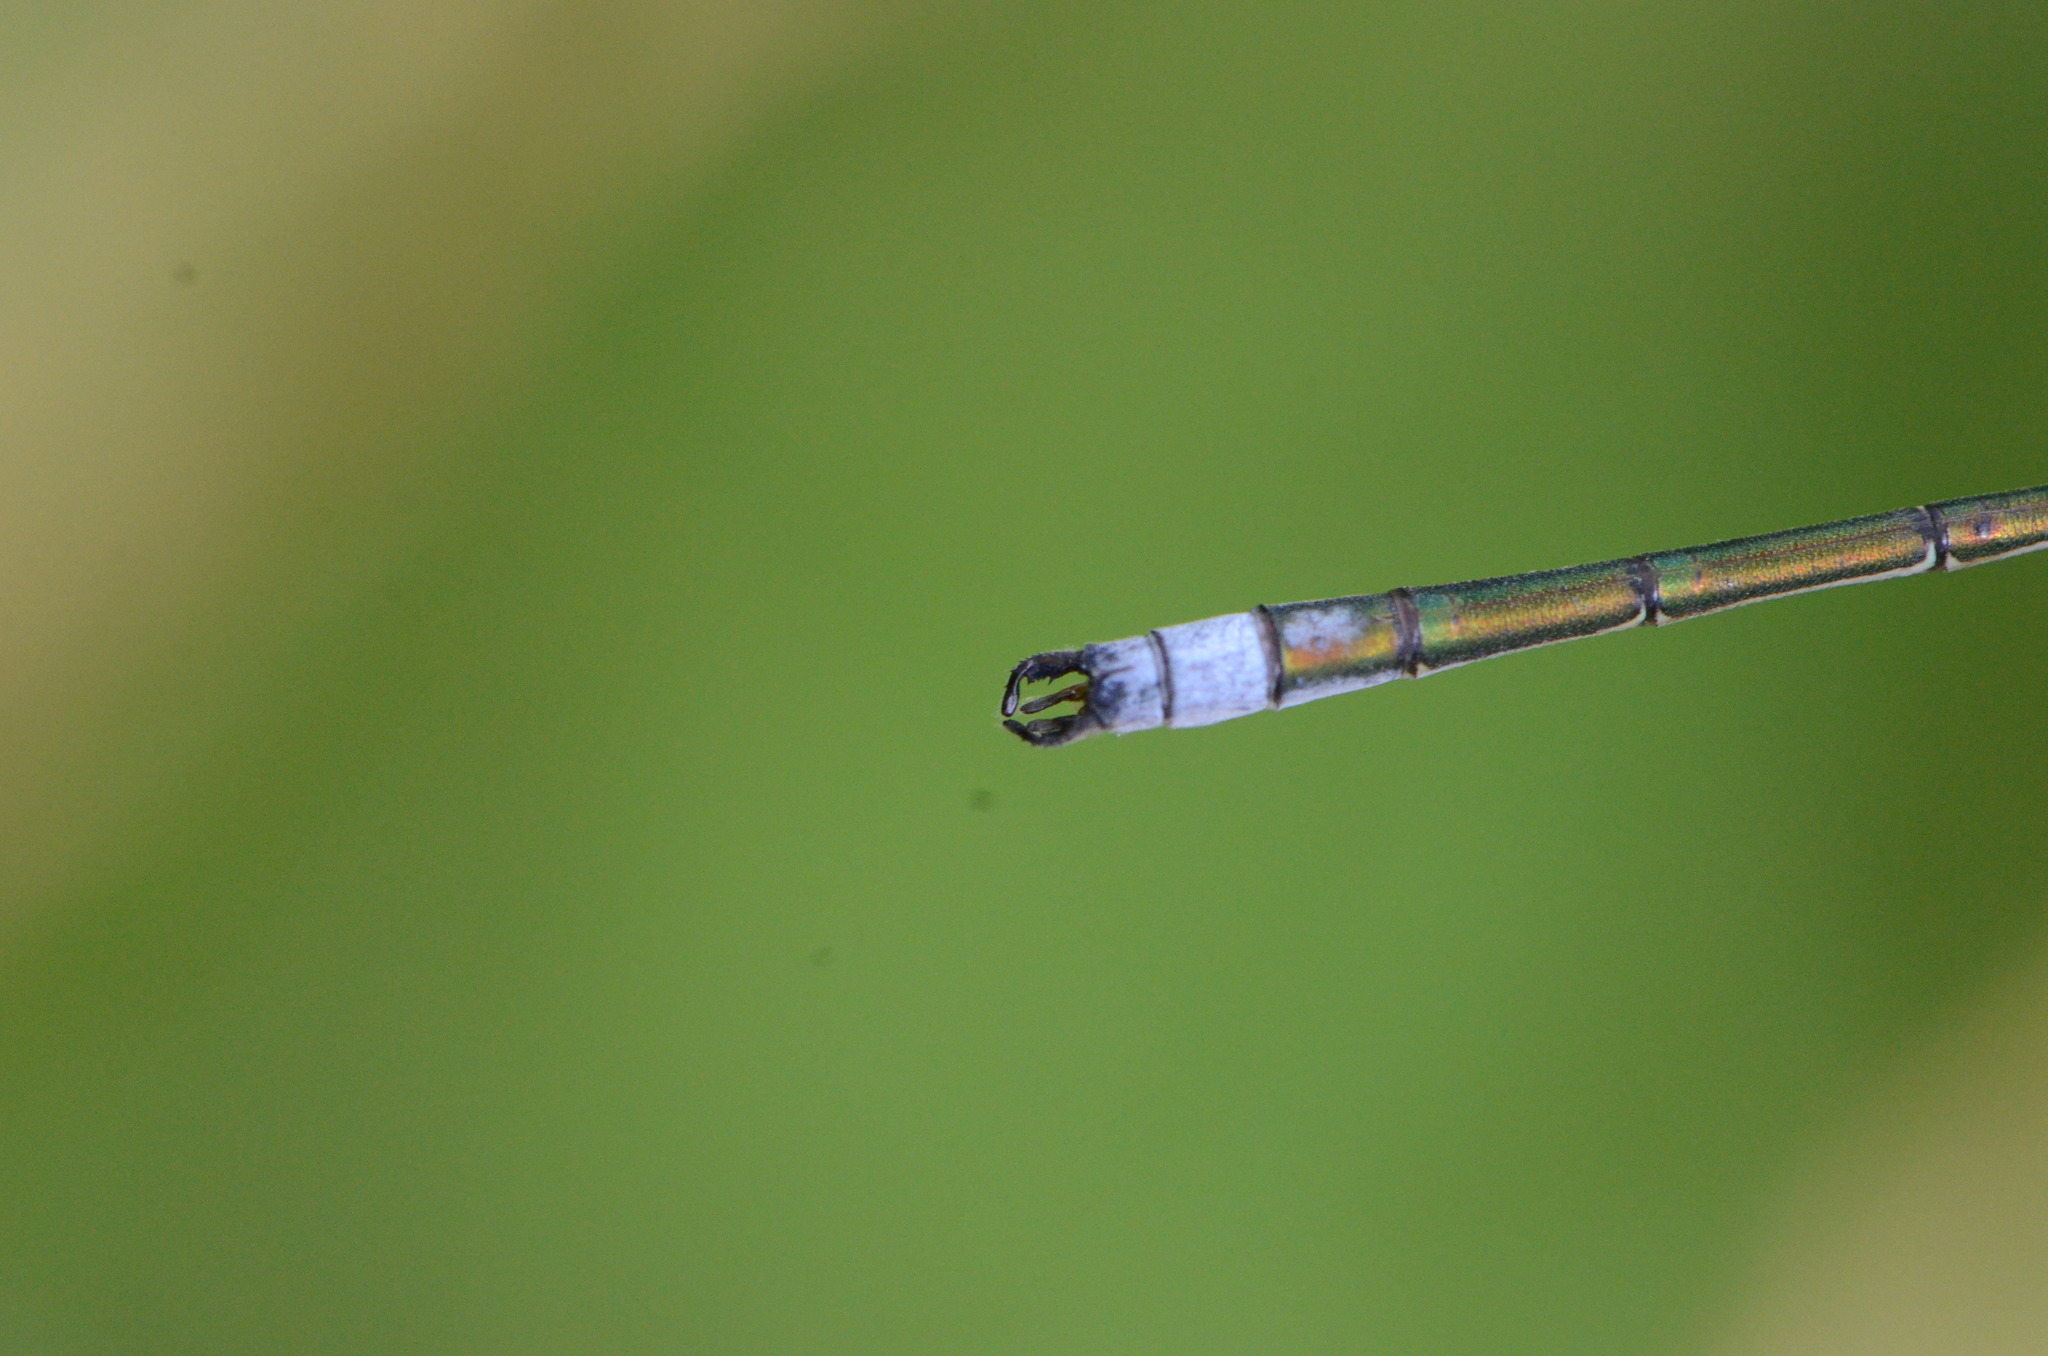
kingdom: Animalia
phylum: Arthropoda
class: Insecta
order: Odonata
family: Lestidae
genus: Lestes
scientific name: Lestes sponsa
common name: Common spreadwing
